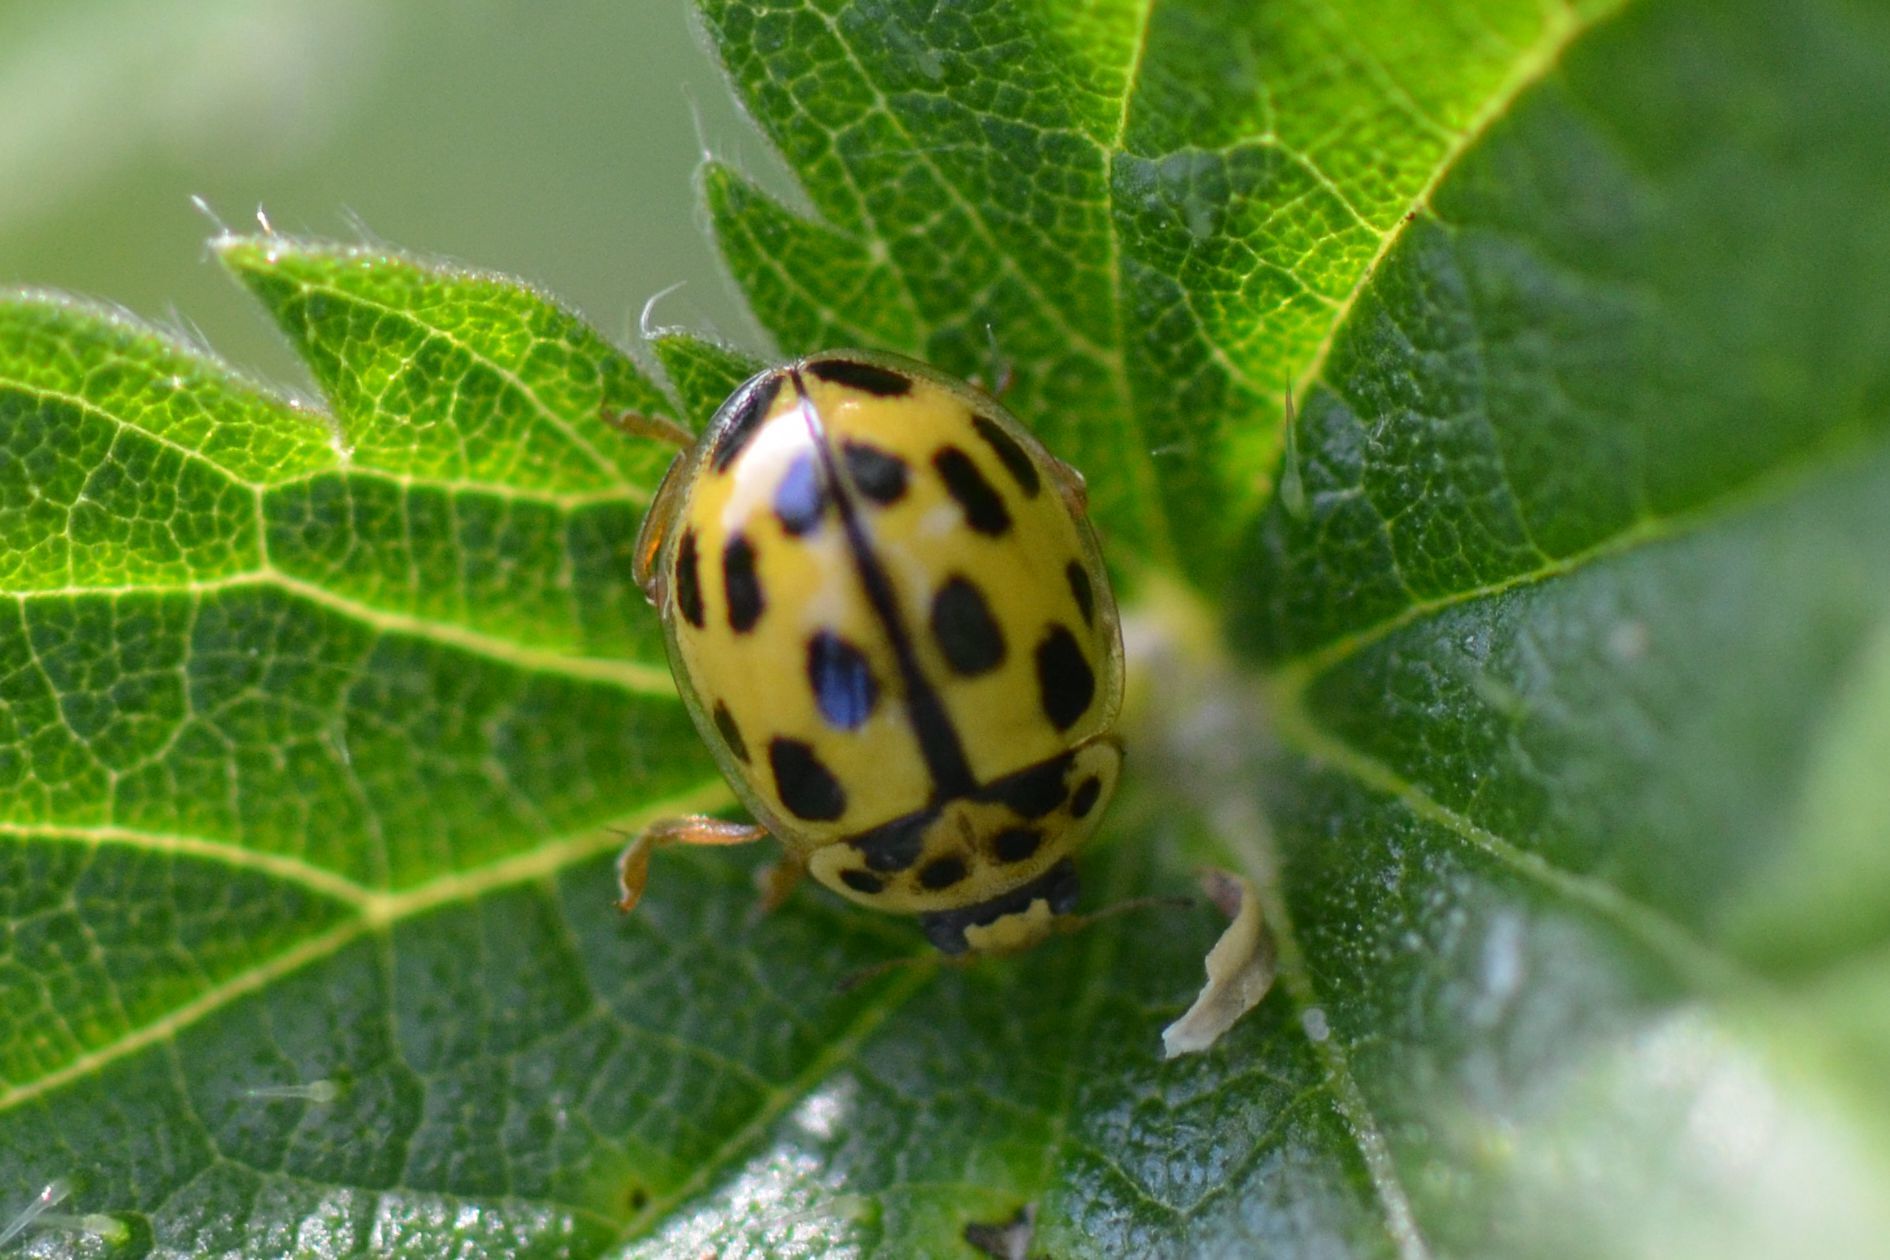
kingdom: Animalia
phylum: Arthropoda
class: Insecta
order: Coleoptera
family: Coccinellidae
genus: Propylaea
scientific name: Propylaea quatuordecimpunctata
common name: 14-spotted ladybird beetle
